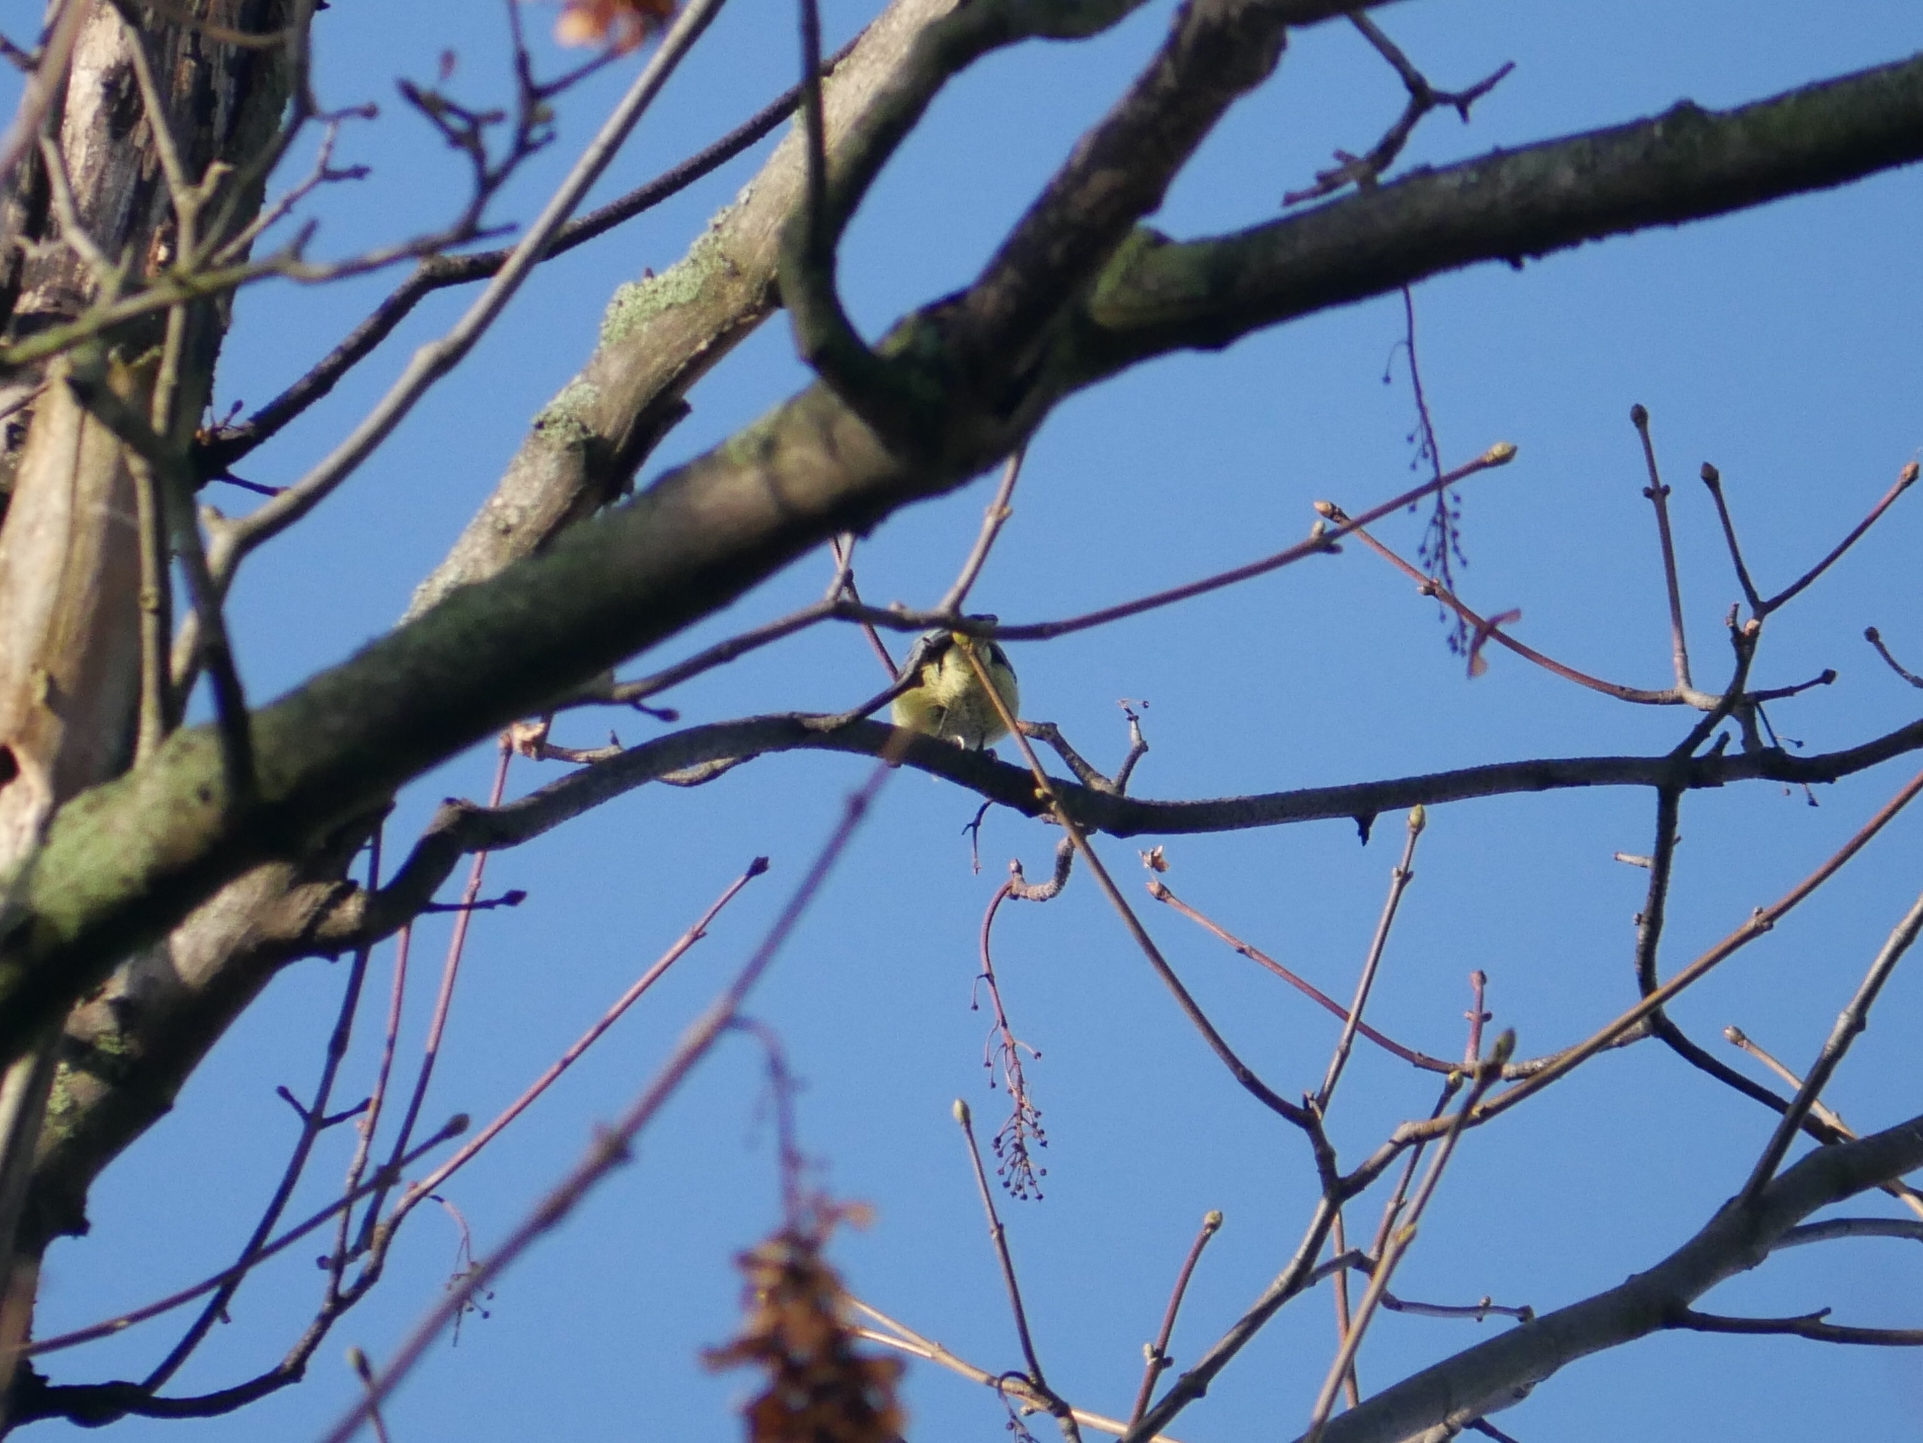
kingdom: Animalia
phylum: Chordata
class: Aves
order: Passeriformes
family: Paridae
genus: Cyanistes
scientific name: Cyanistes caeruleus
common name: Eurasian blue tit
